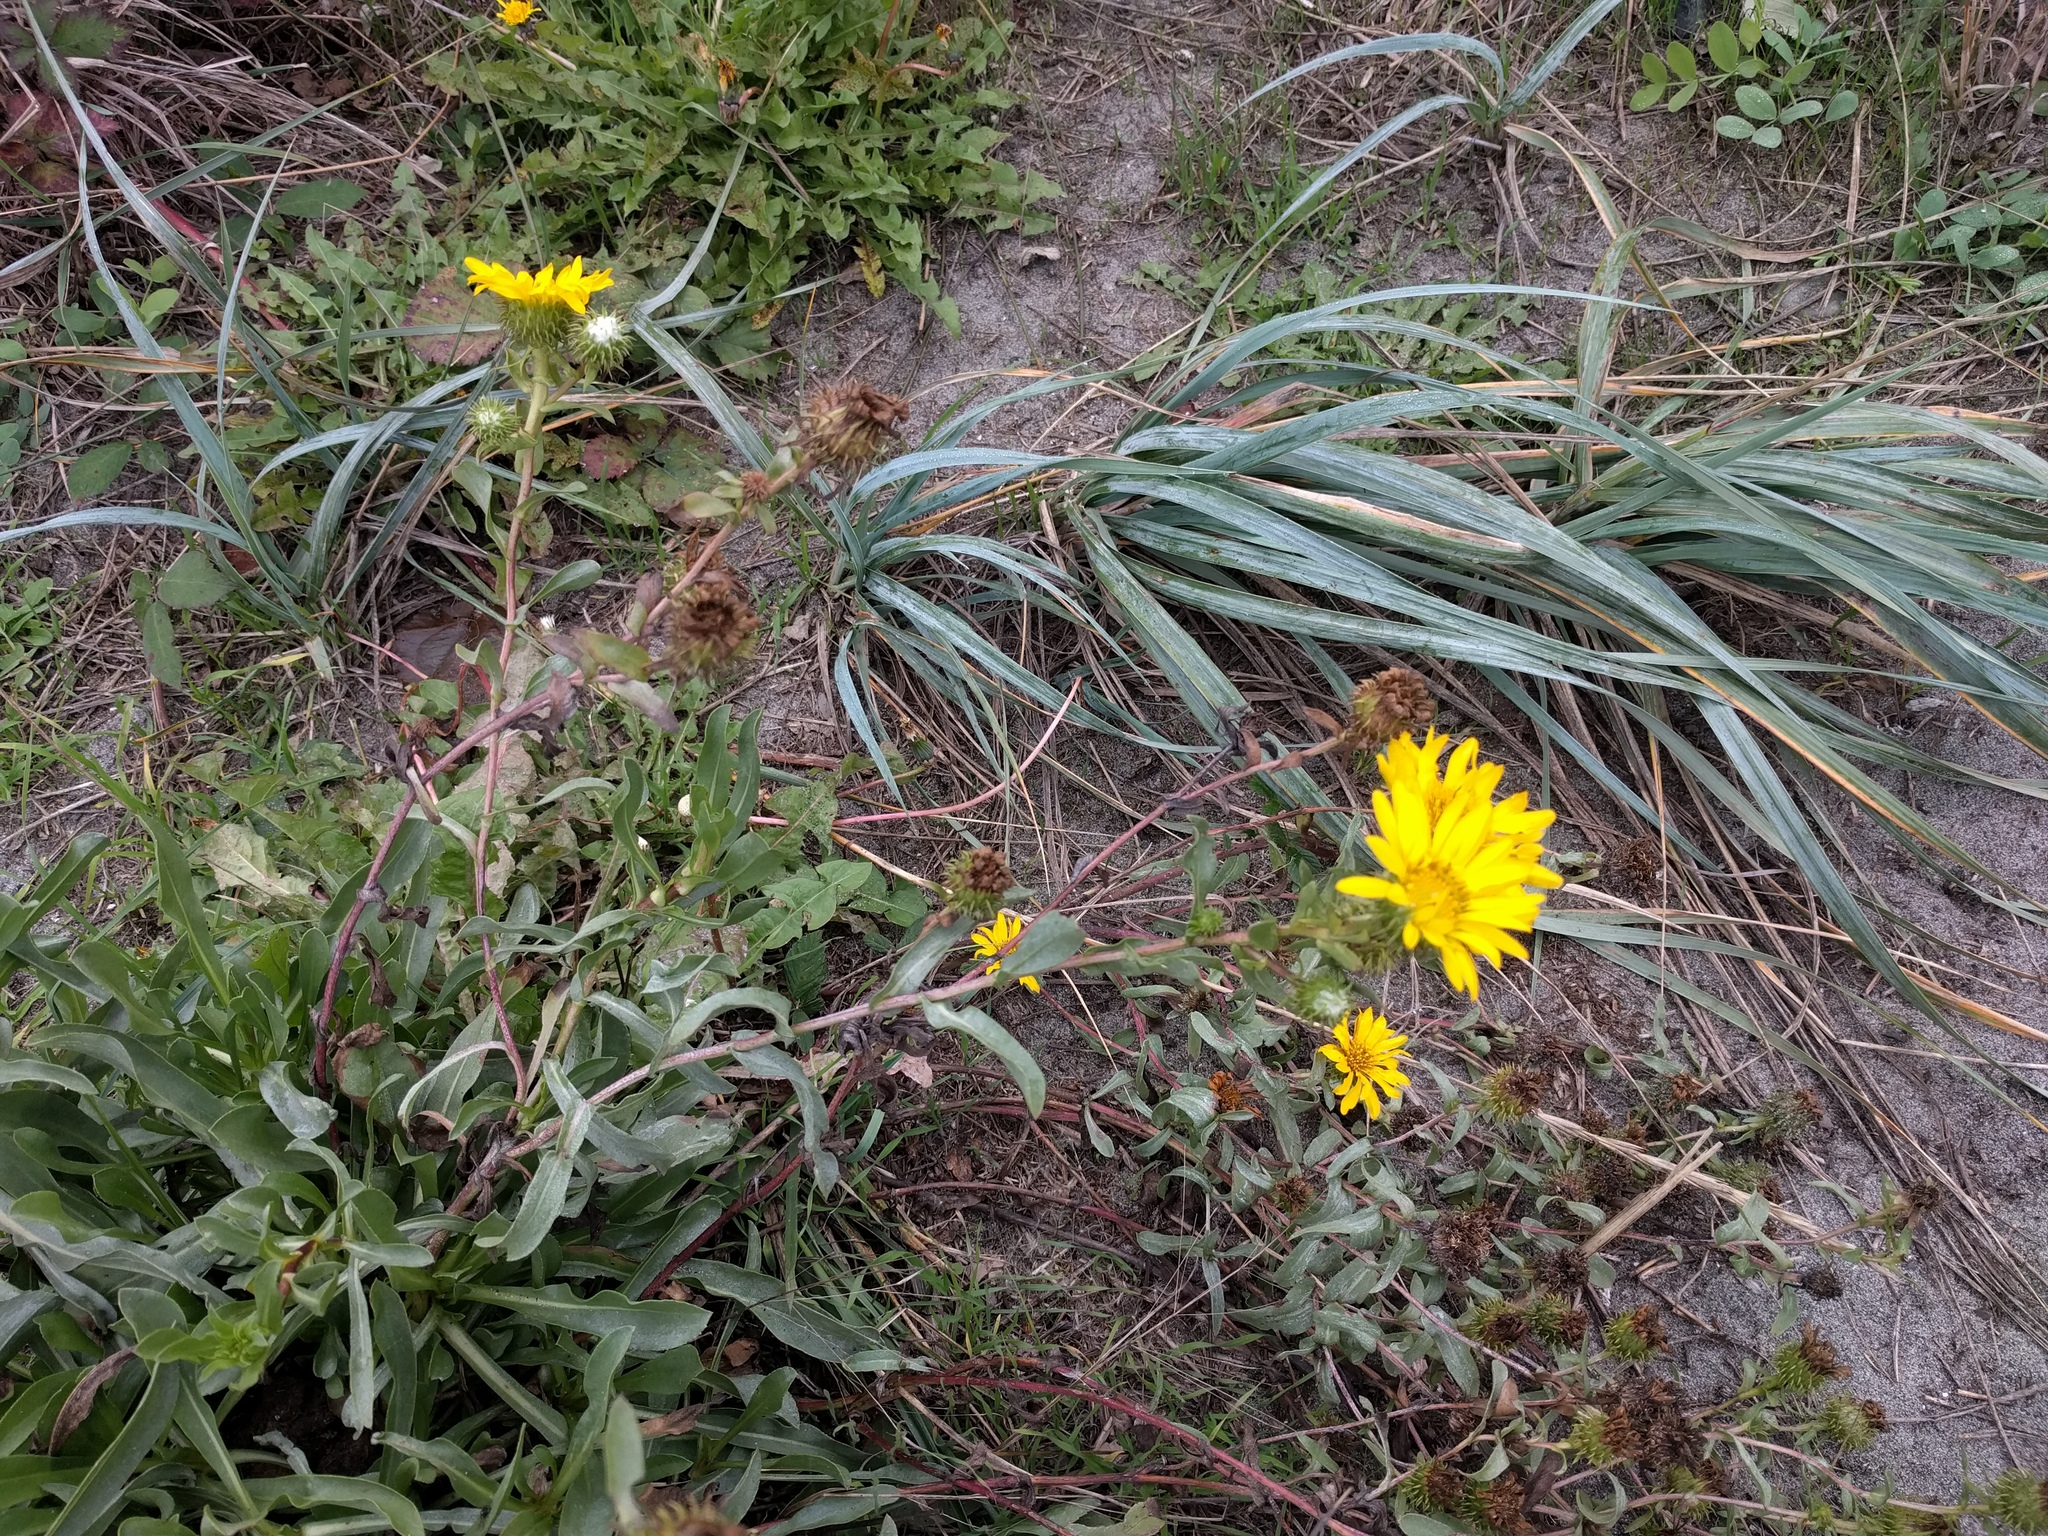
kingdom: Plantae
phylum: Tracheophyta
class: Magnoliopsida
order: Asterales
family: Asteraceae
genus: Grindelia
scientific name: Grindelia integrifolia
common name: Puget sound gumweed
